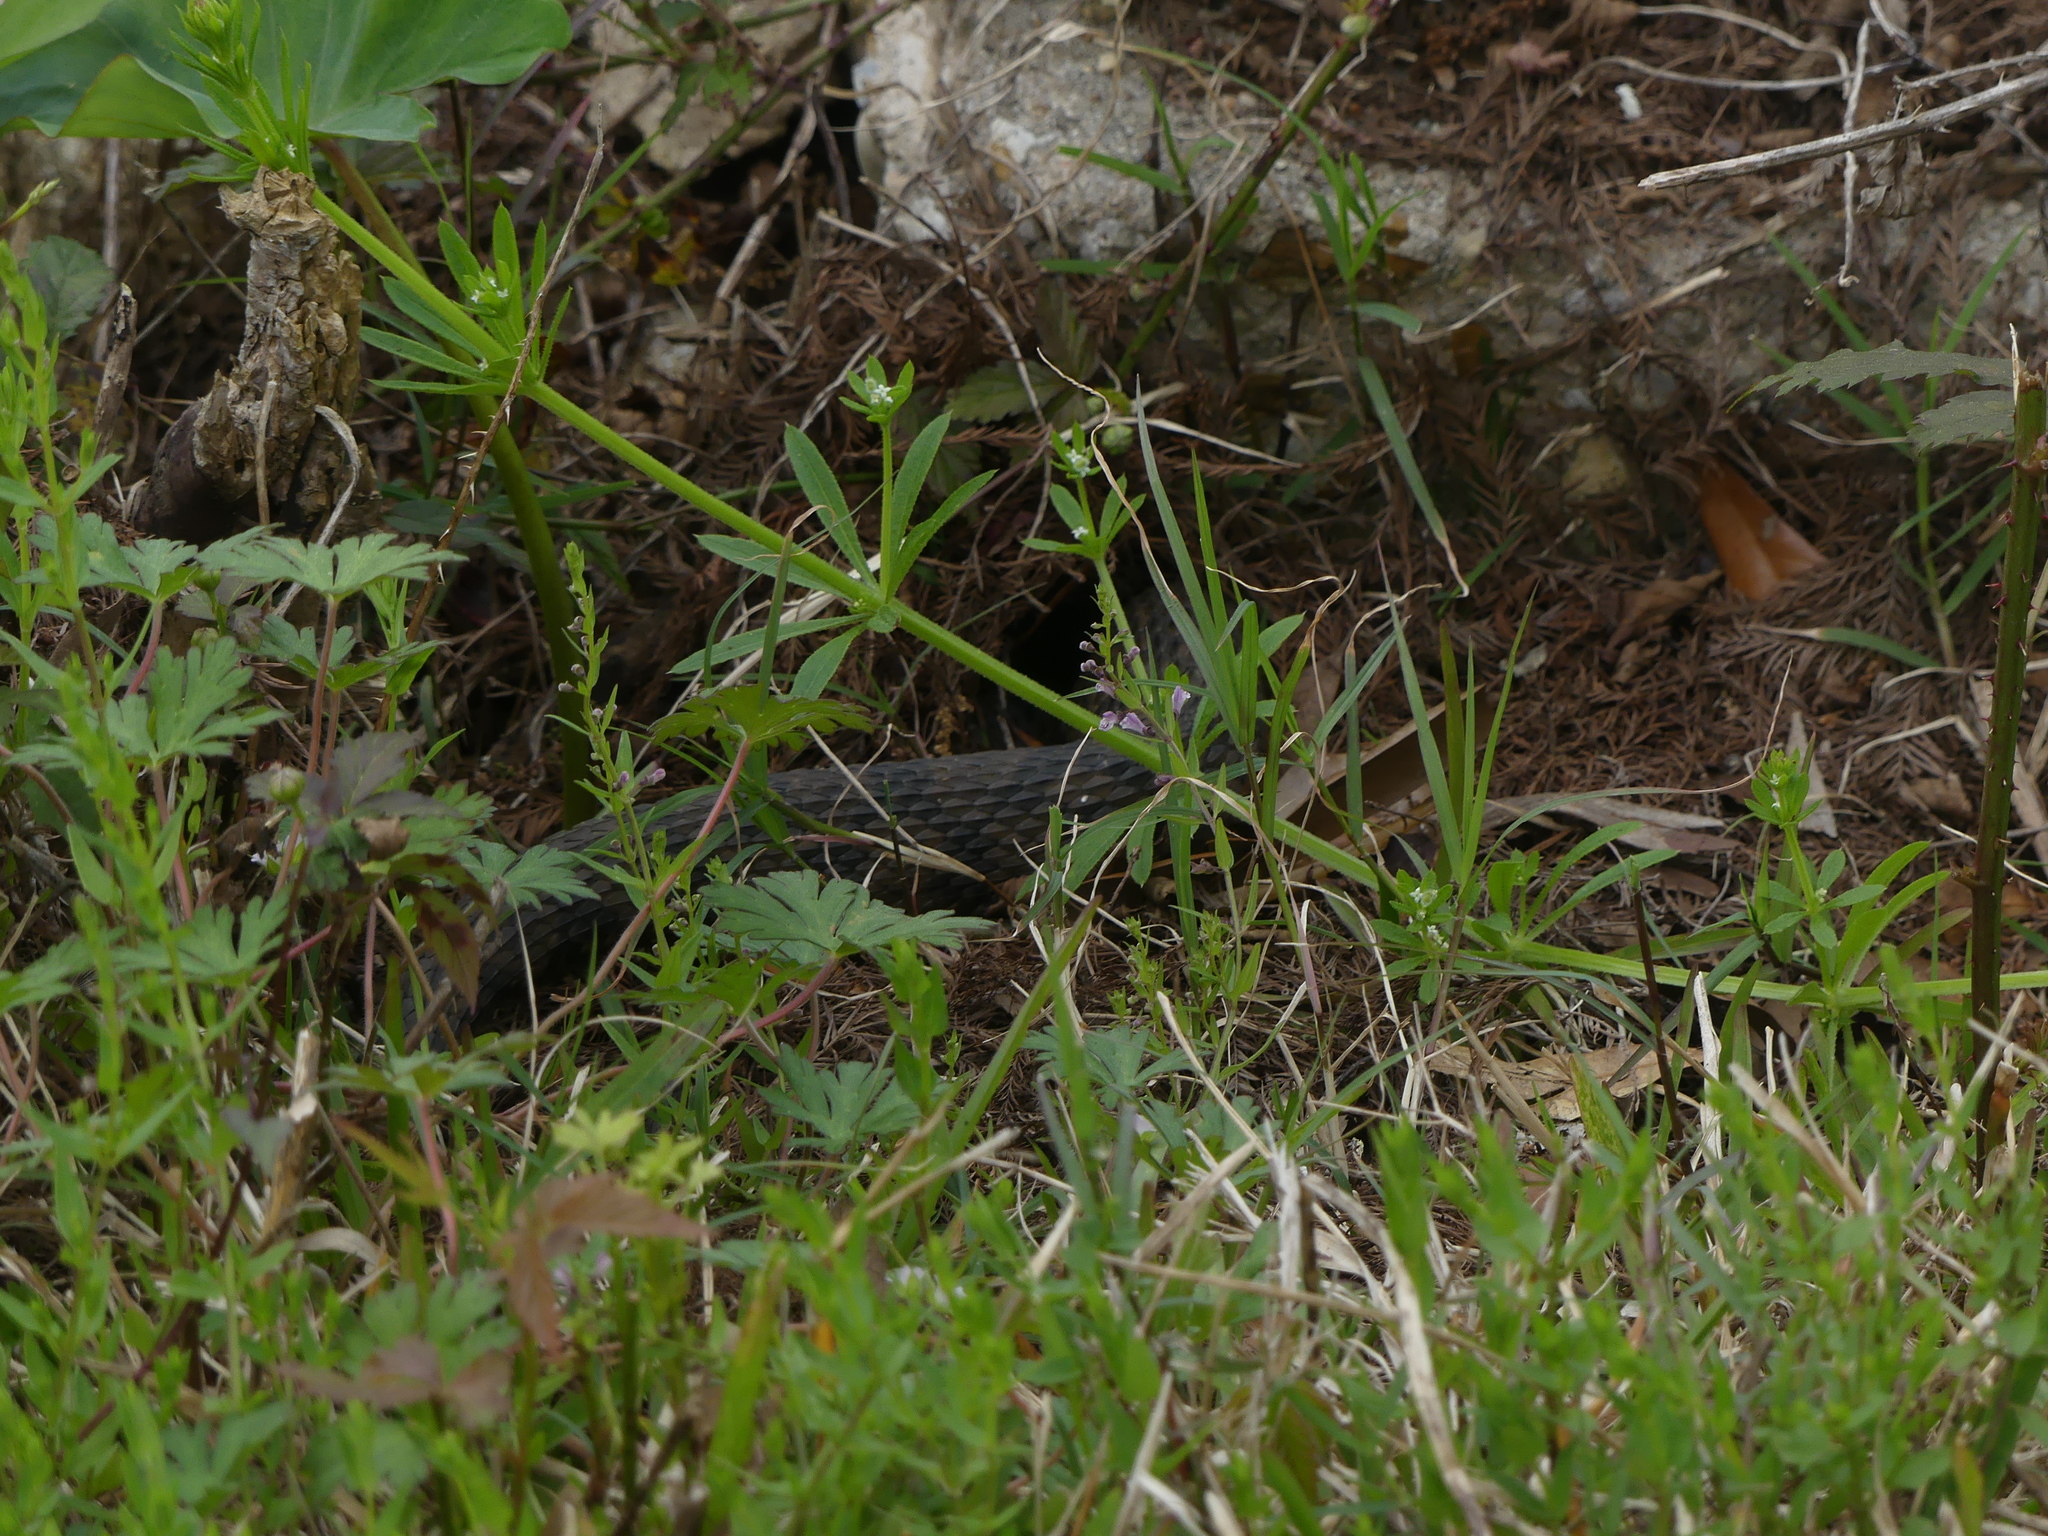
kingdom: Animalia
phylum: Chordata
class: Squamata
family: Colubridae
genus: Nerodia
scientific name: Nerodia rhombifer
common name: Diamondback water snake
